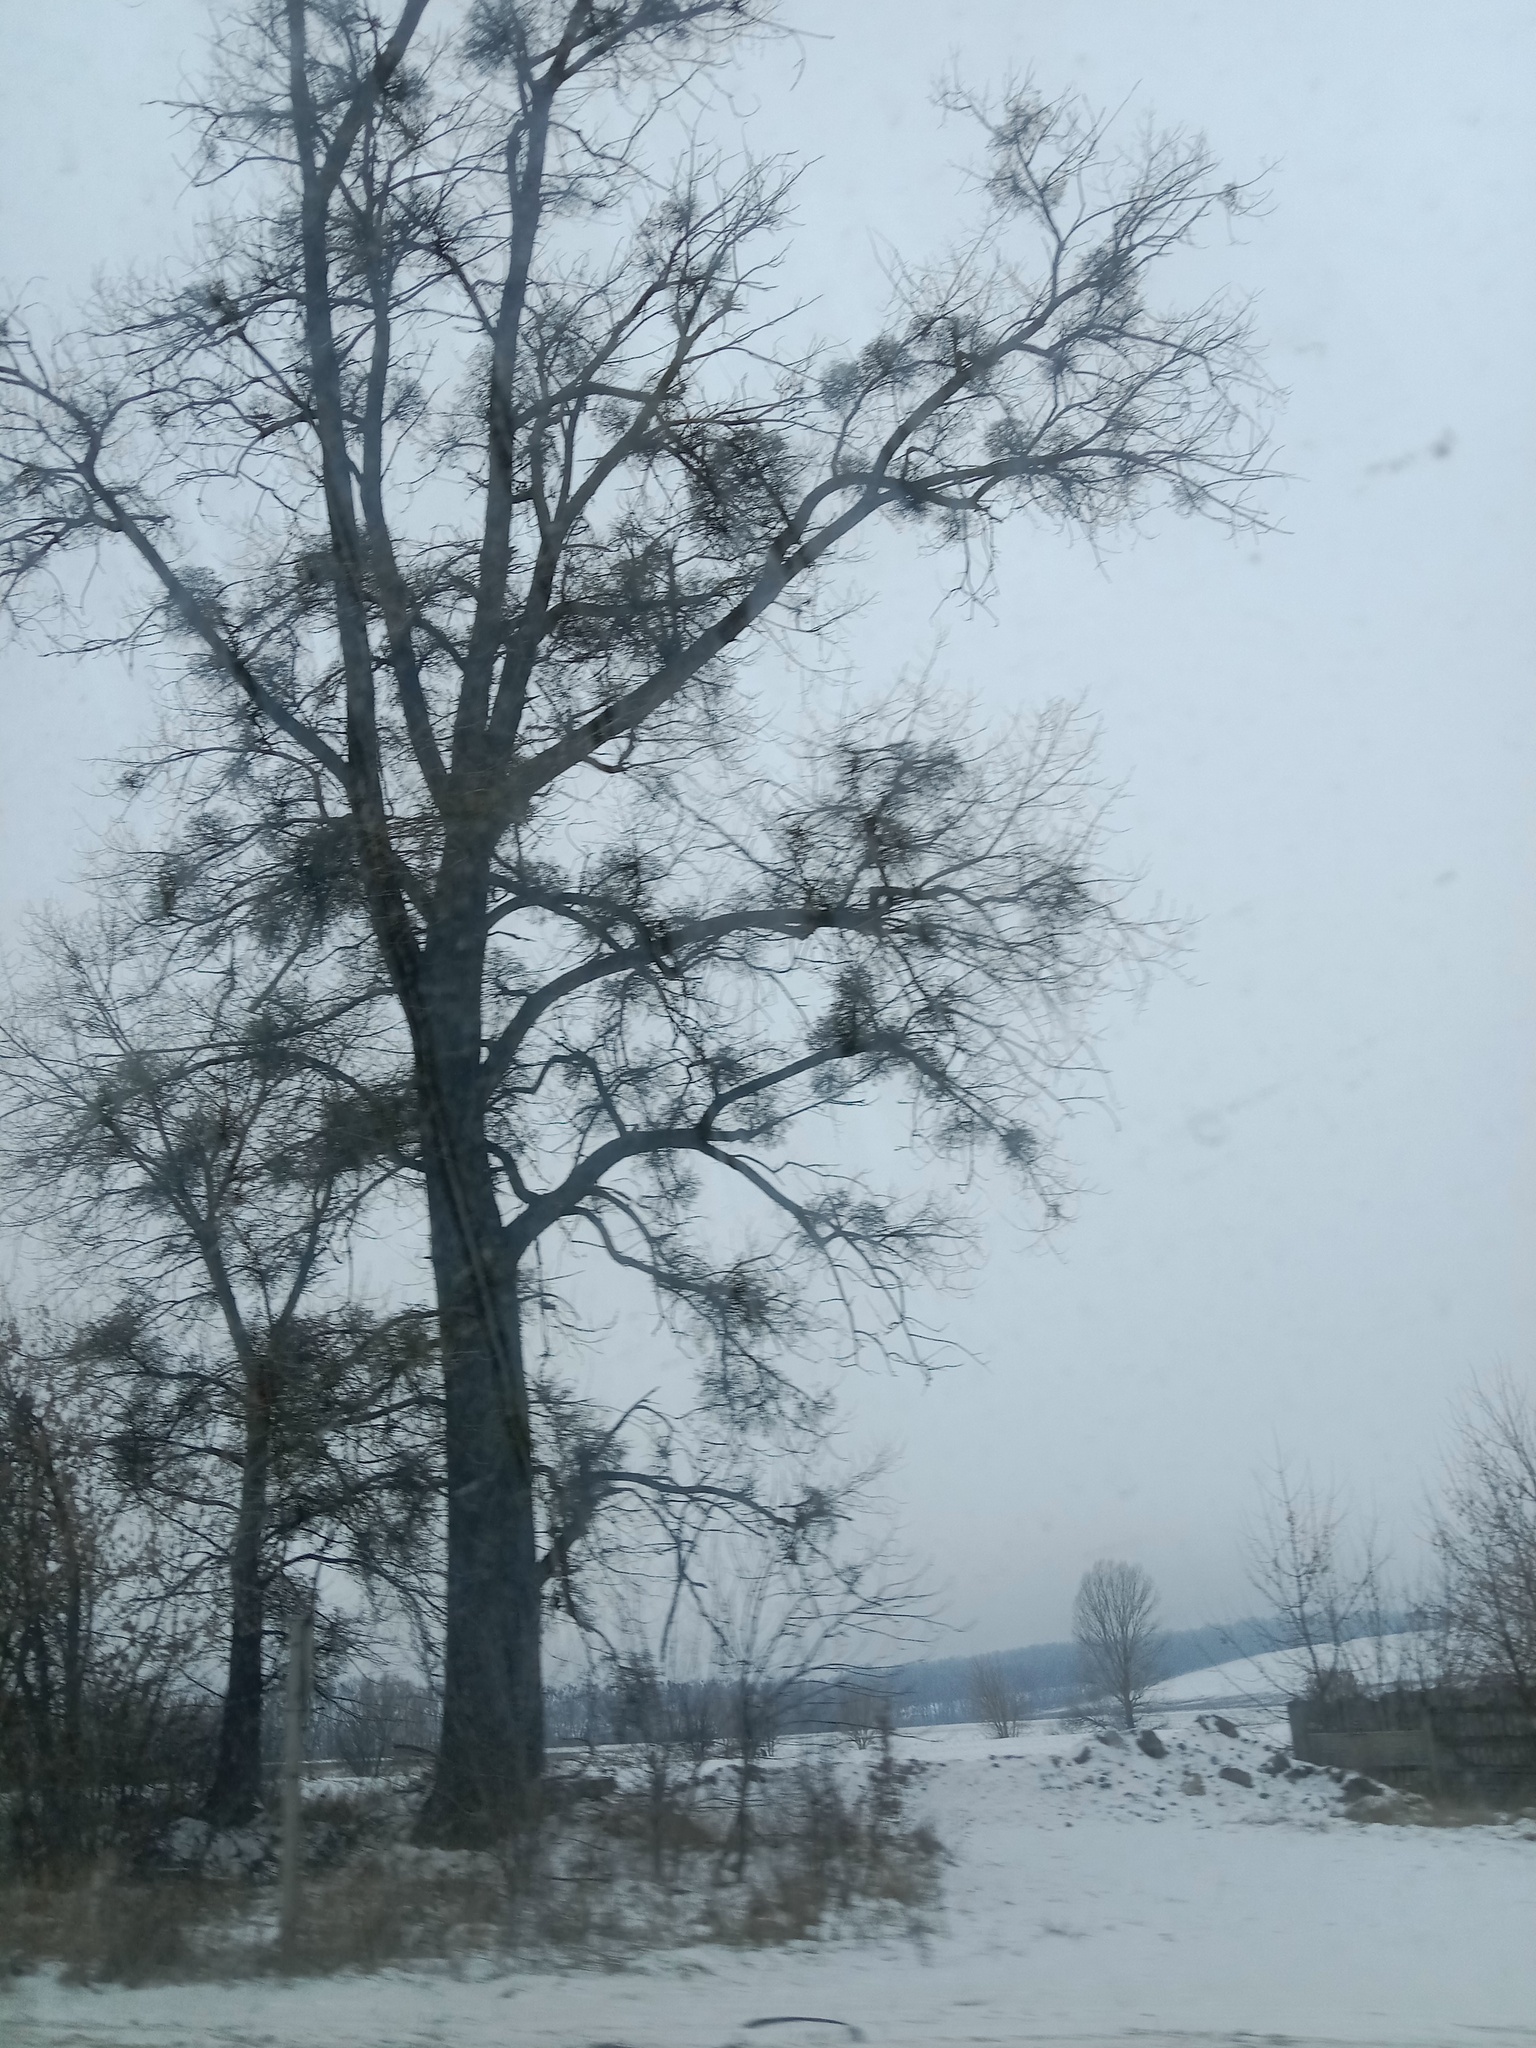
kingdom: Plantae
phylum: Tracheophyta
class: Magnoliopsida
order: Santalales
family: Viscaceae
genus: Viscum
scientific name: Viscum album
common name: Mistletoe
